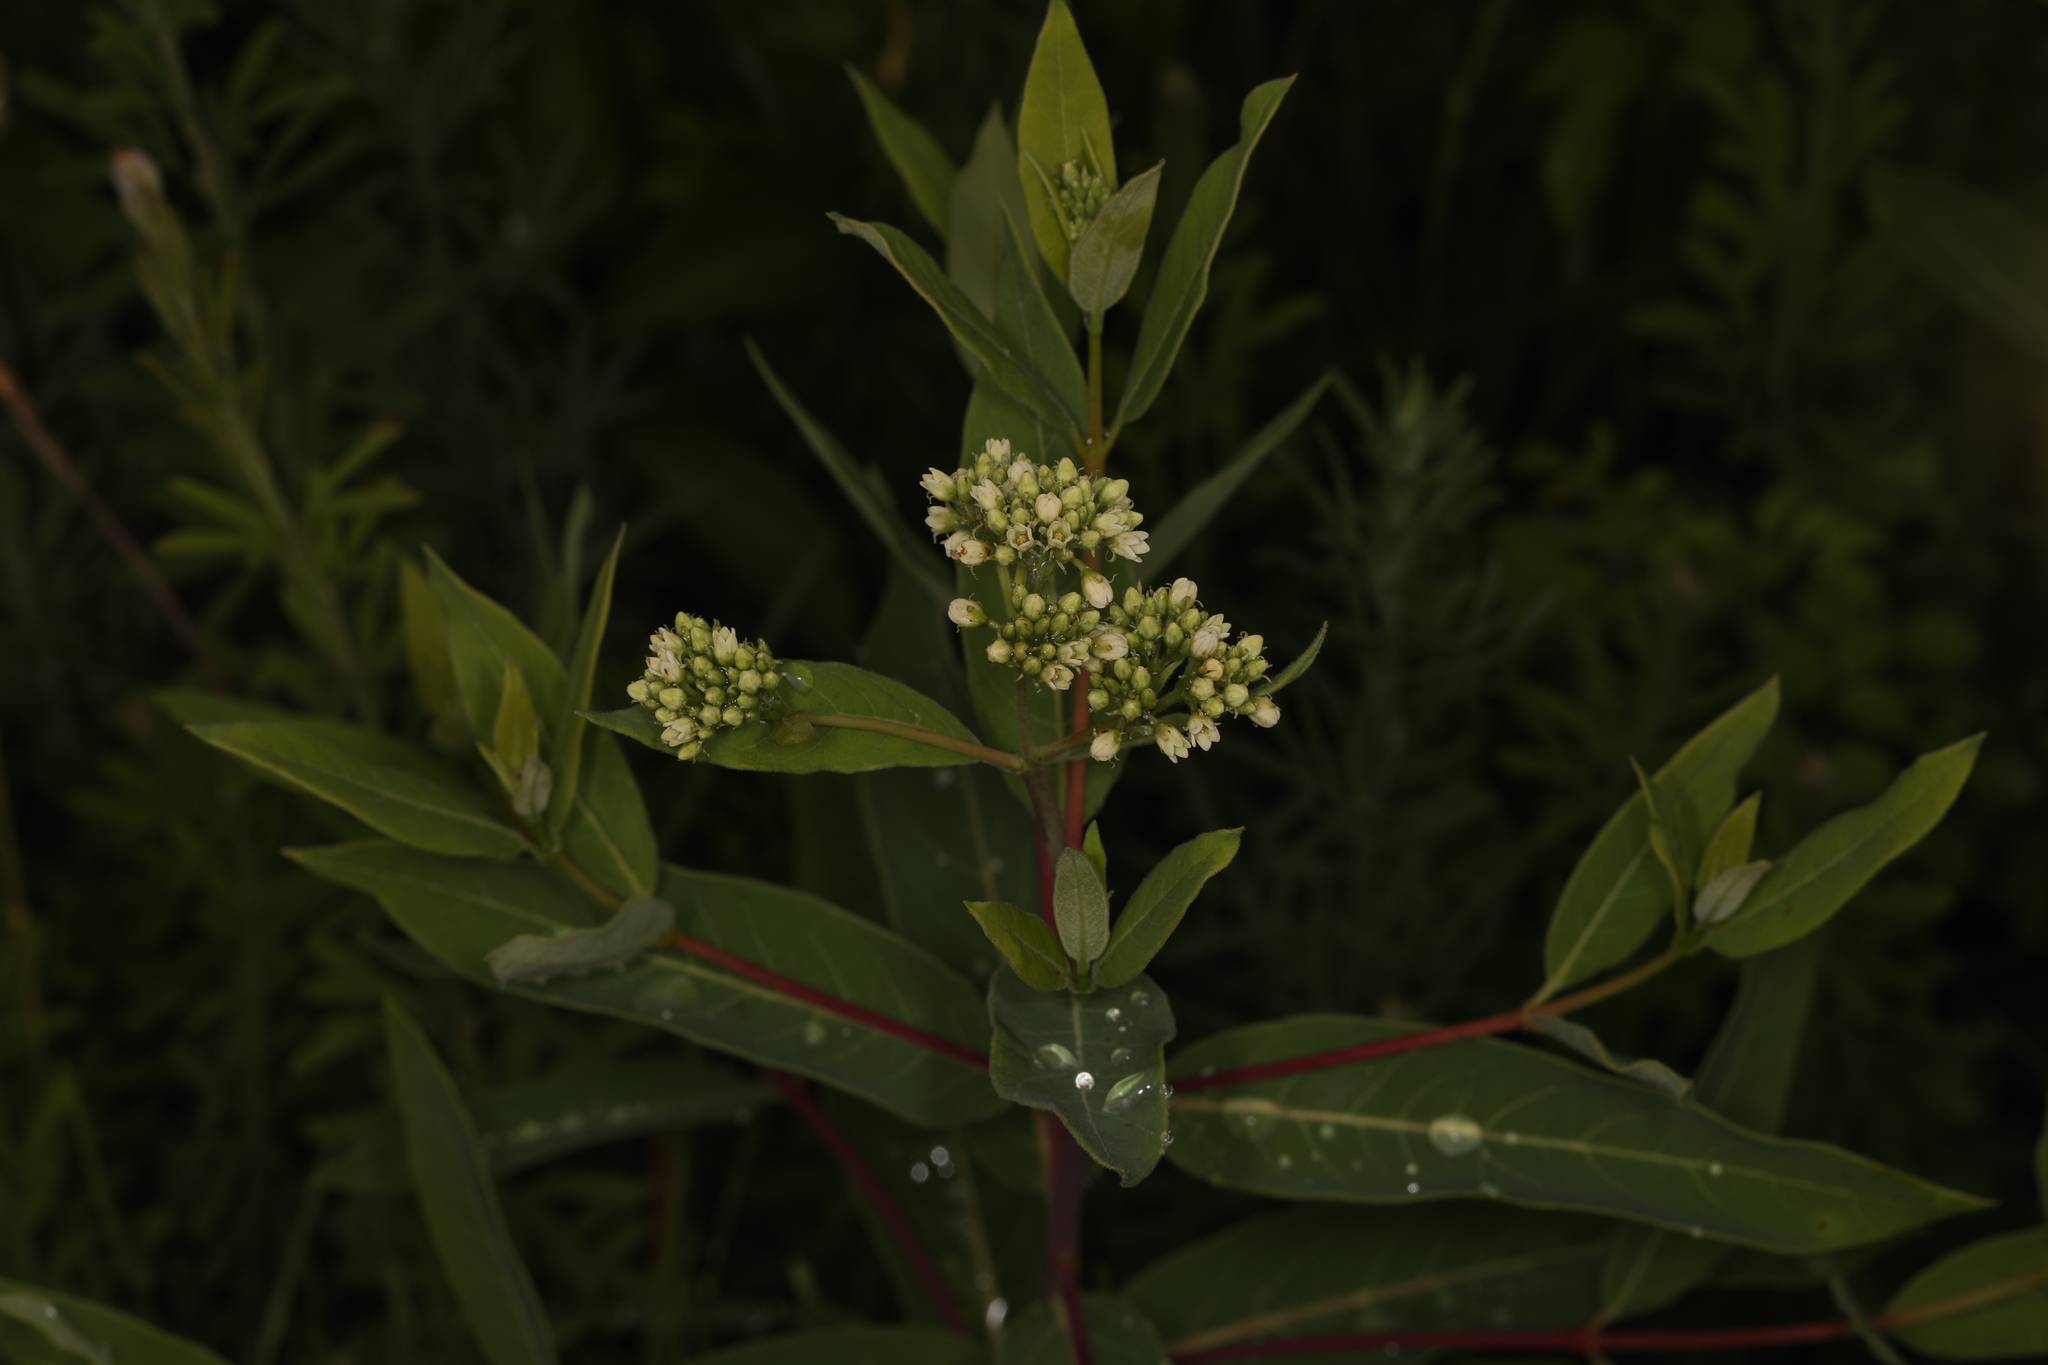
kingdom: Plantae
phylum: Tracheophyta
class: Magnoliopsida
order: Gentianales
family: Apocynaceae
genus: Apocynum
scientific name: Apocynum cannabinum
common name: Hemp dogbane
